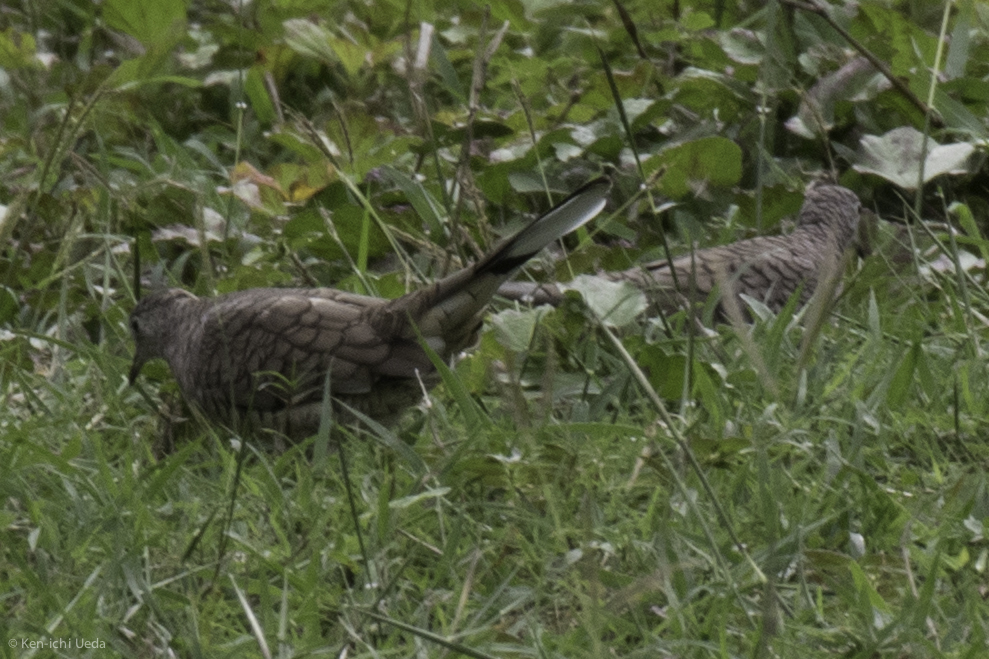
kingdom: Animalia
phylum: Chordata
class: Aves
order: Columbiformes
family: Columbidae
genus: Columbina
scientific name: Columbina inca
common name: Inca dove
